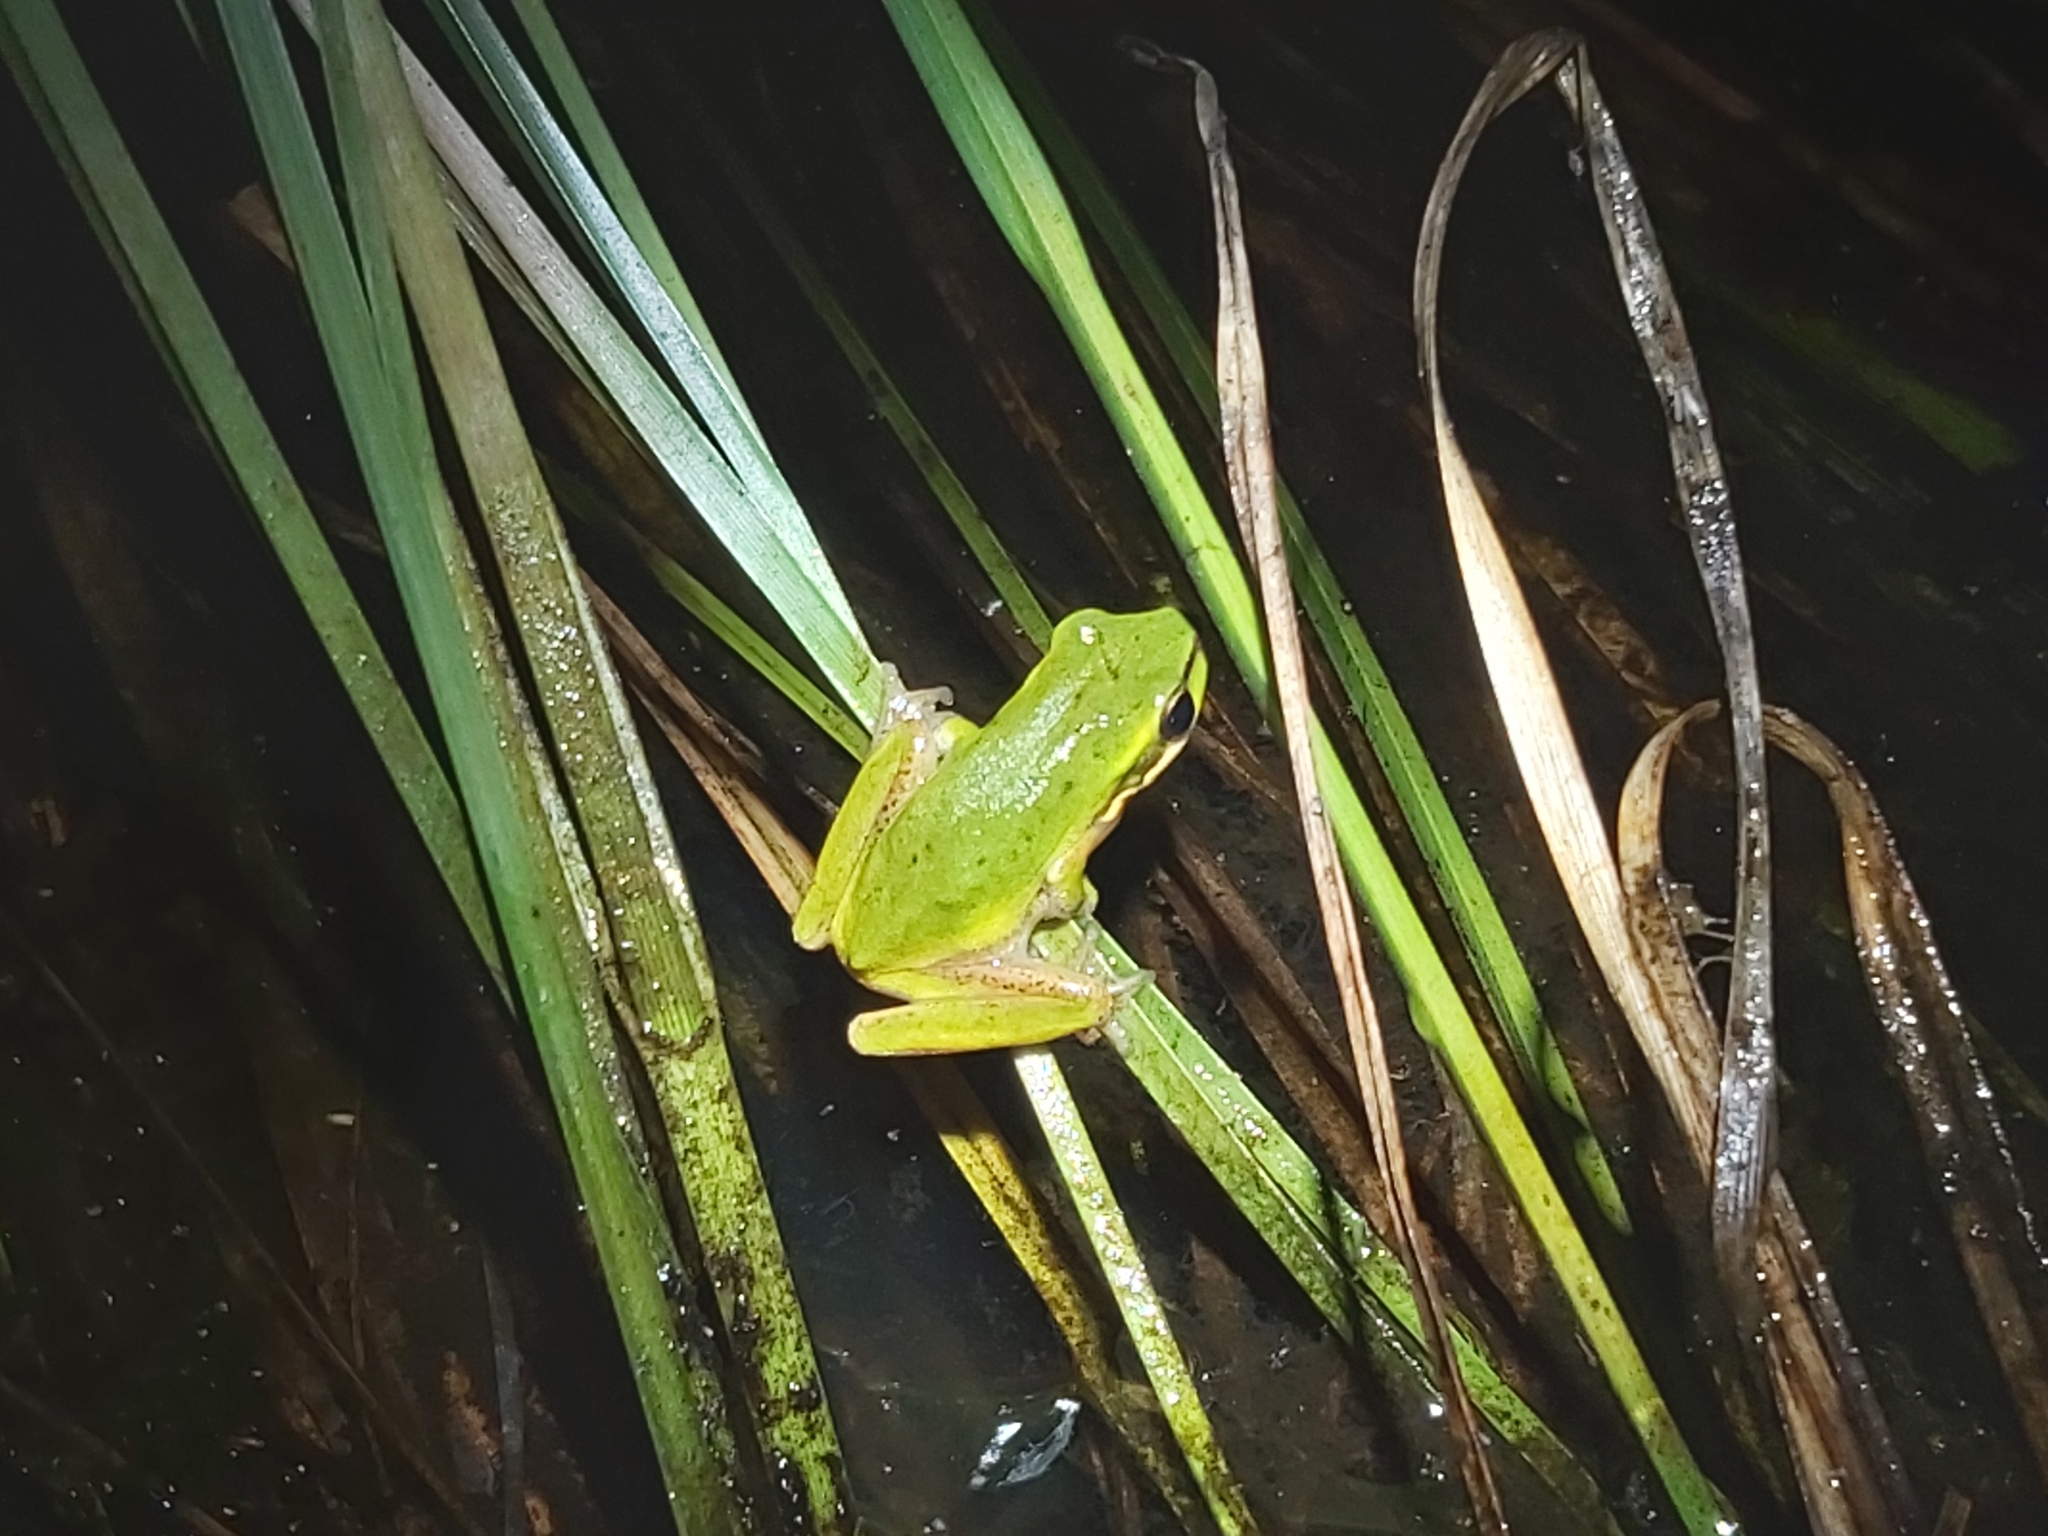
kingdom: Animalia
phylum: Chordata
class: Amphibia
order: Anura
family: Pelodryadidae
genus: Litoria
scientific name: Litoria fallax
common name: Eastern dwarf treefrog
